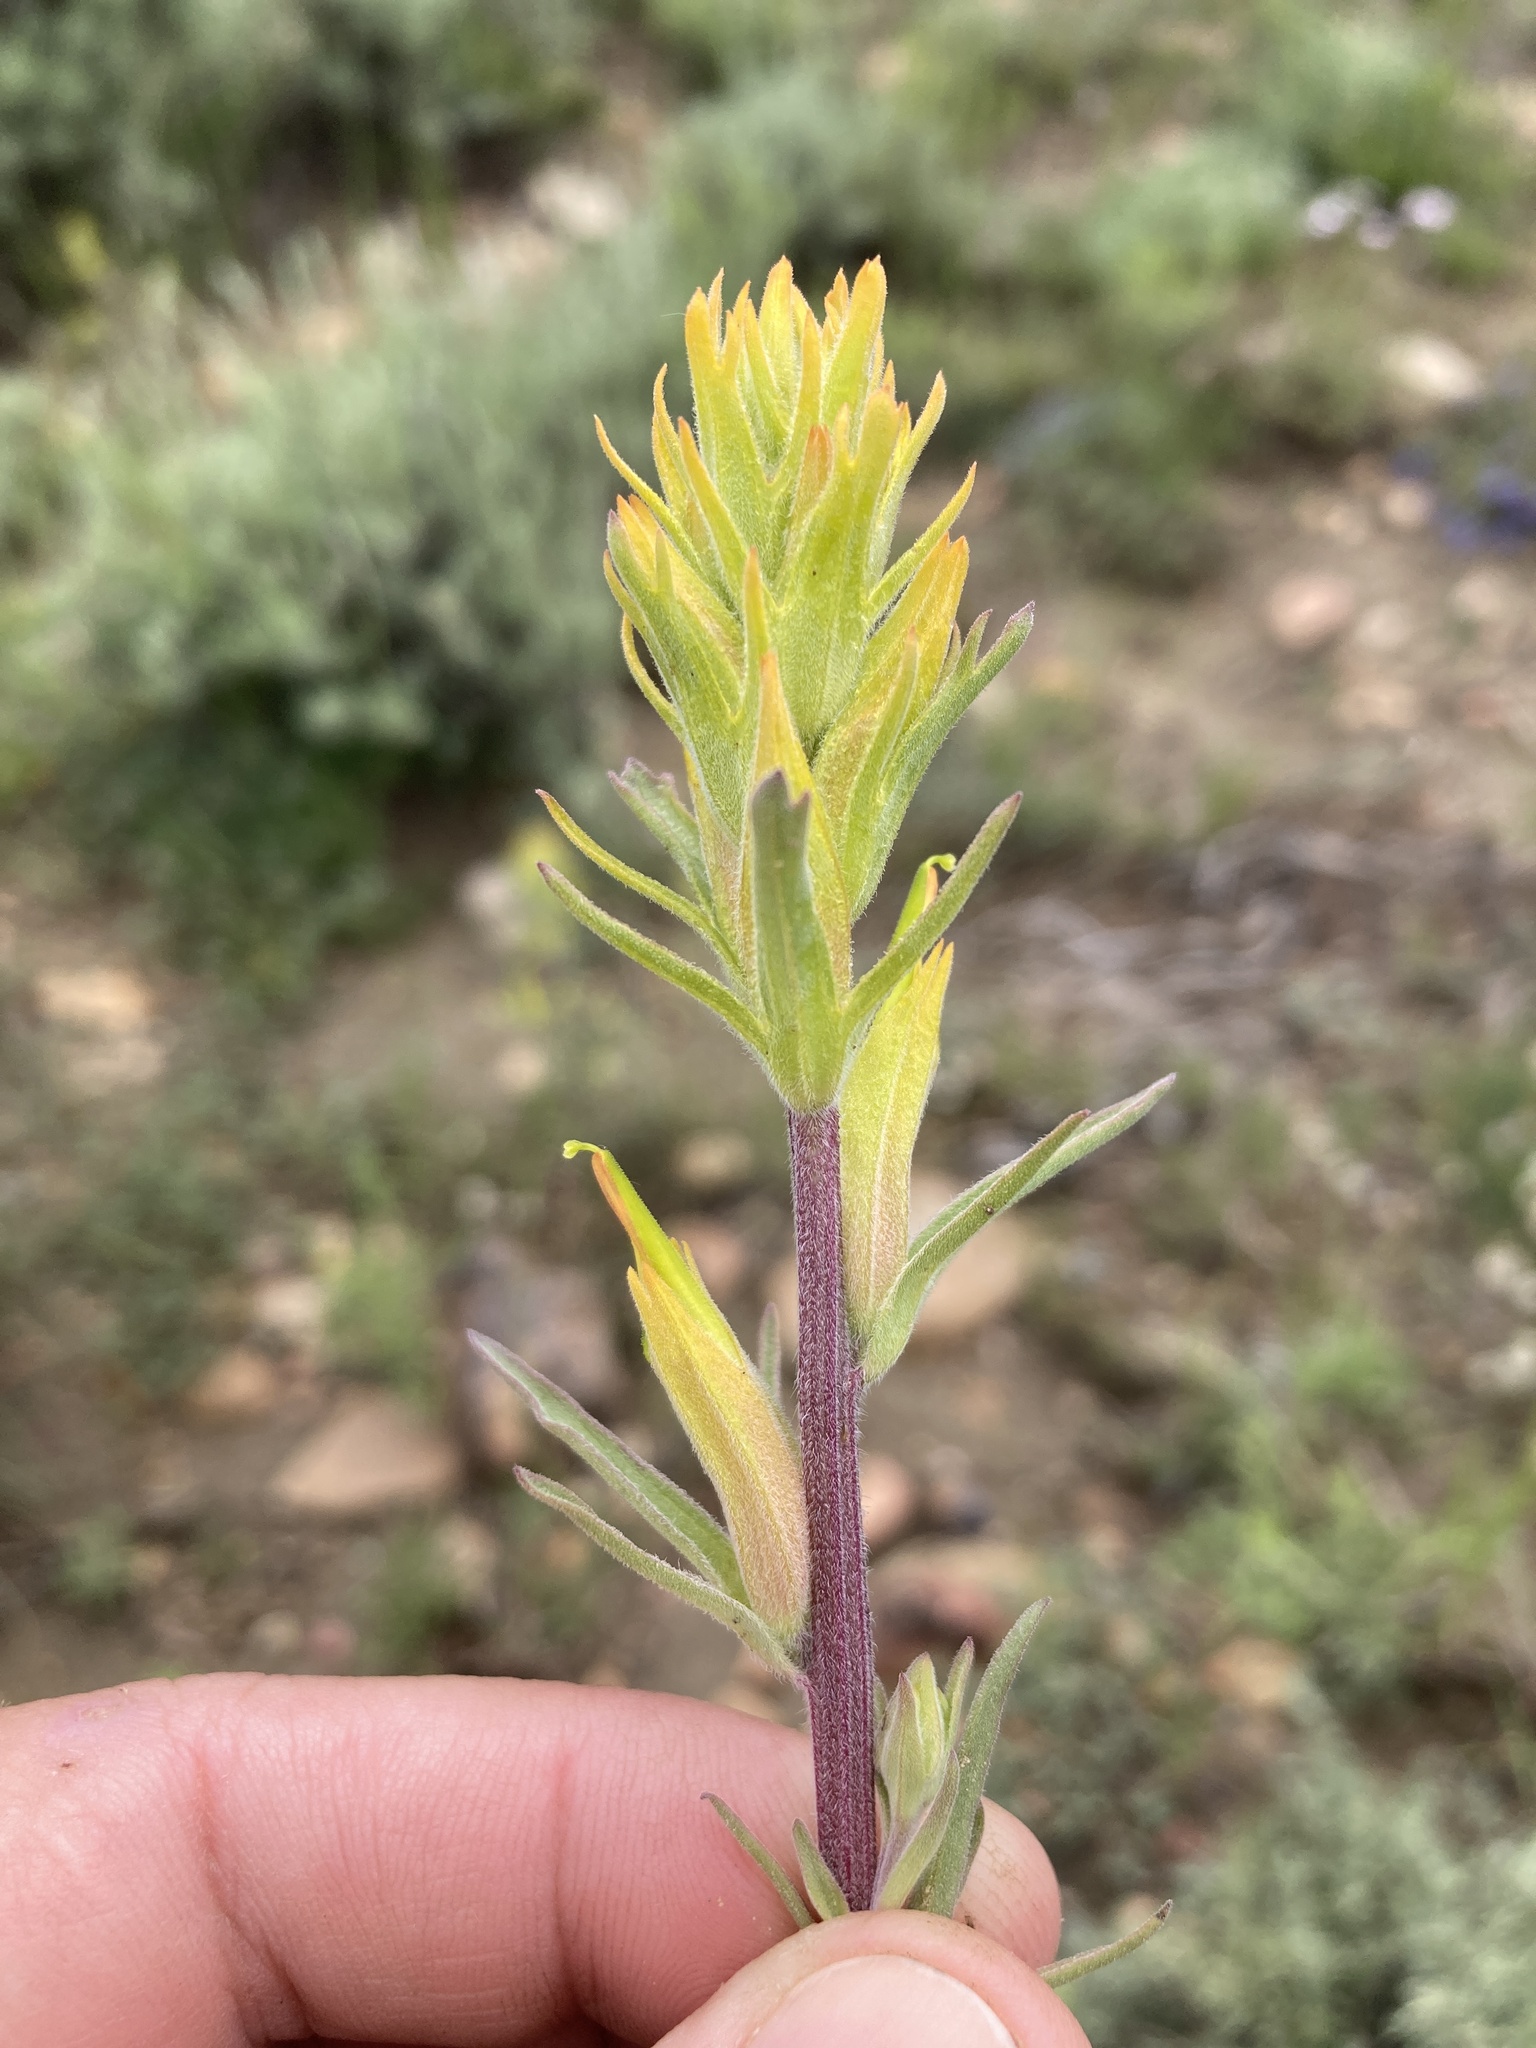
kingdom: Plantae
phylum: Tracheophyta
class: Magnoliopsida
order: Lamiales
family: Orobanchaceae
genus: Castilleja
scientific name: Castilleja flava
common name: Yellow paintbrush
